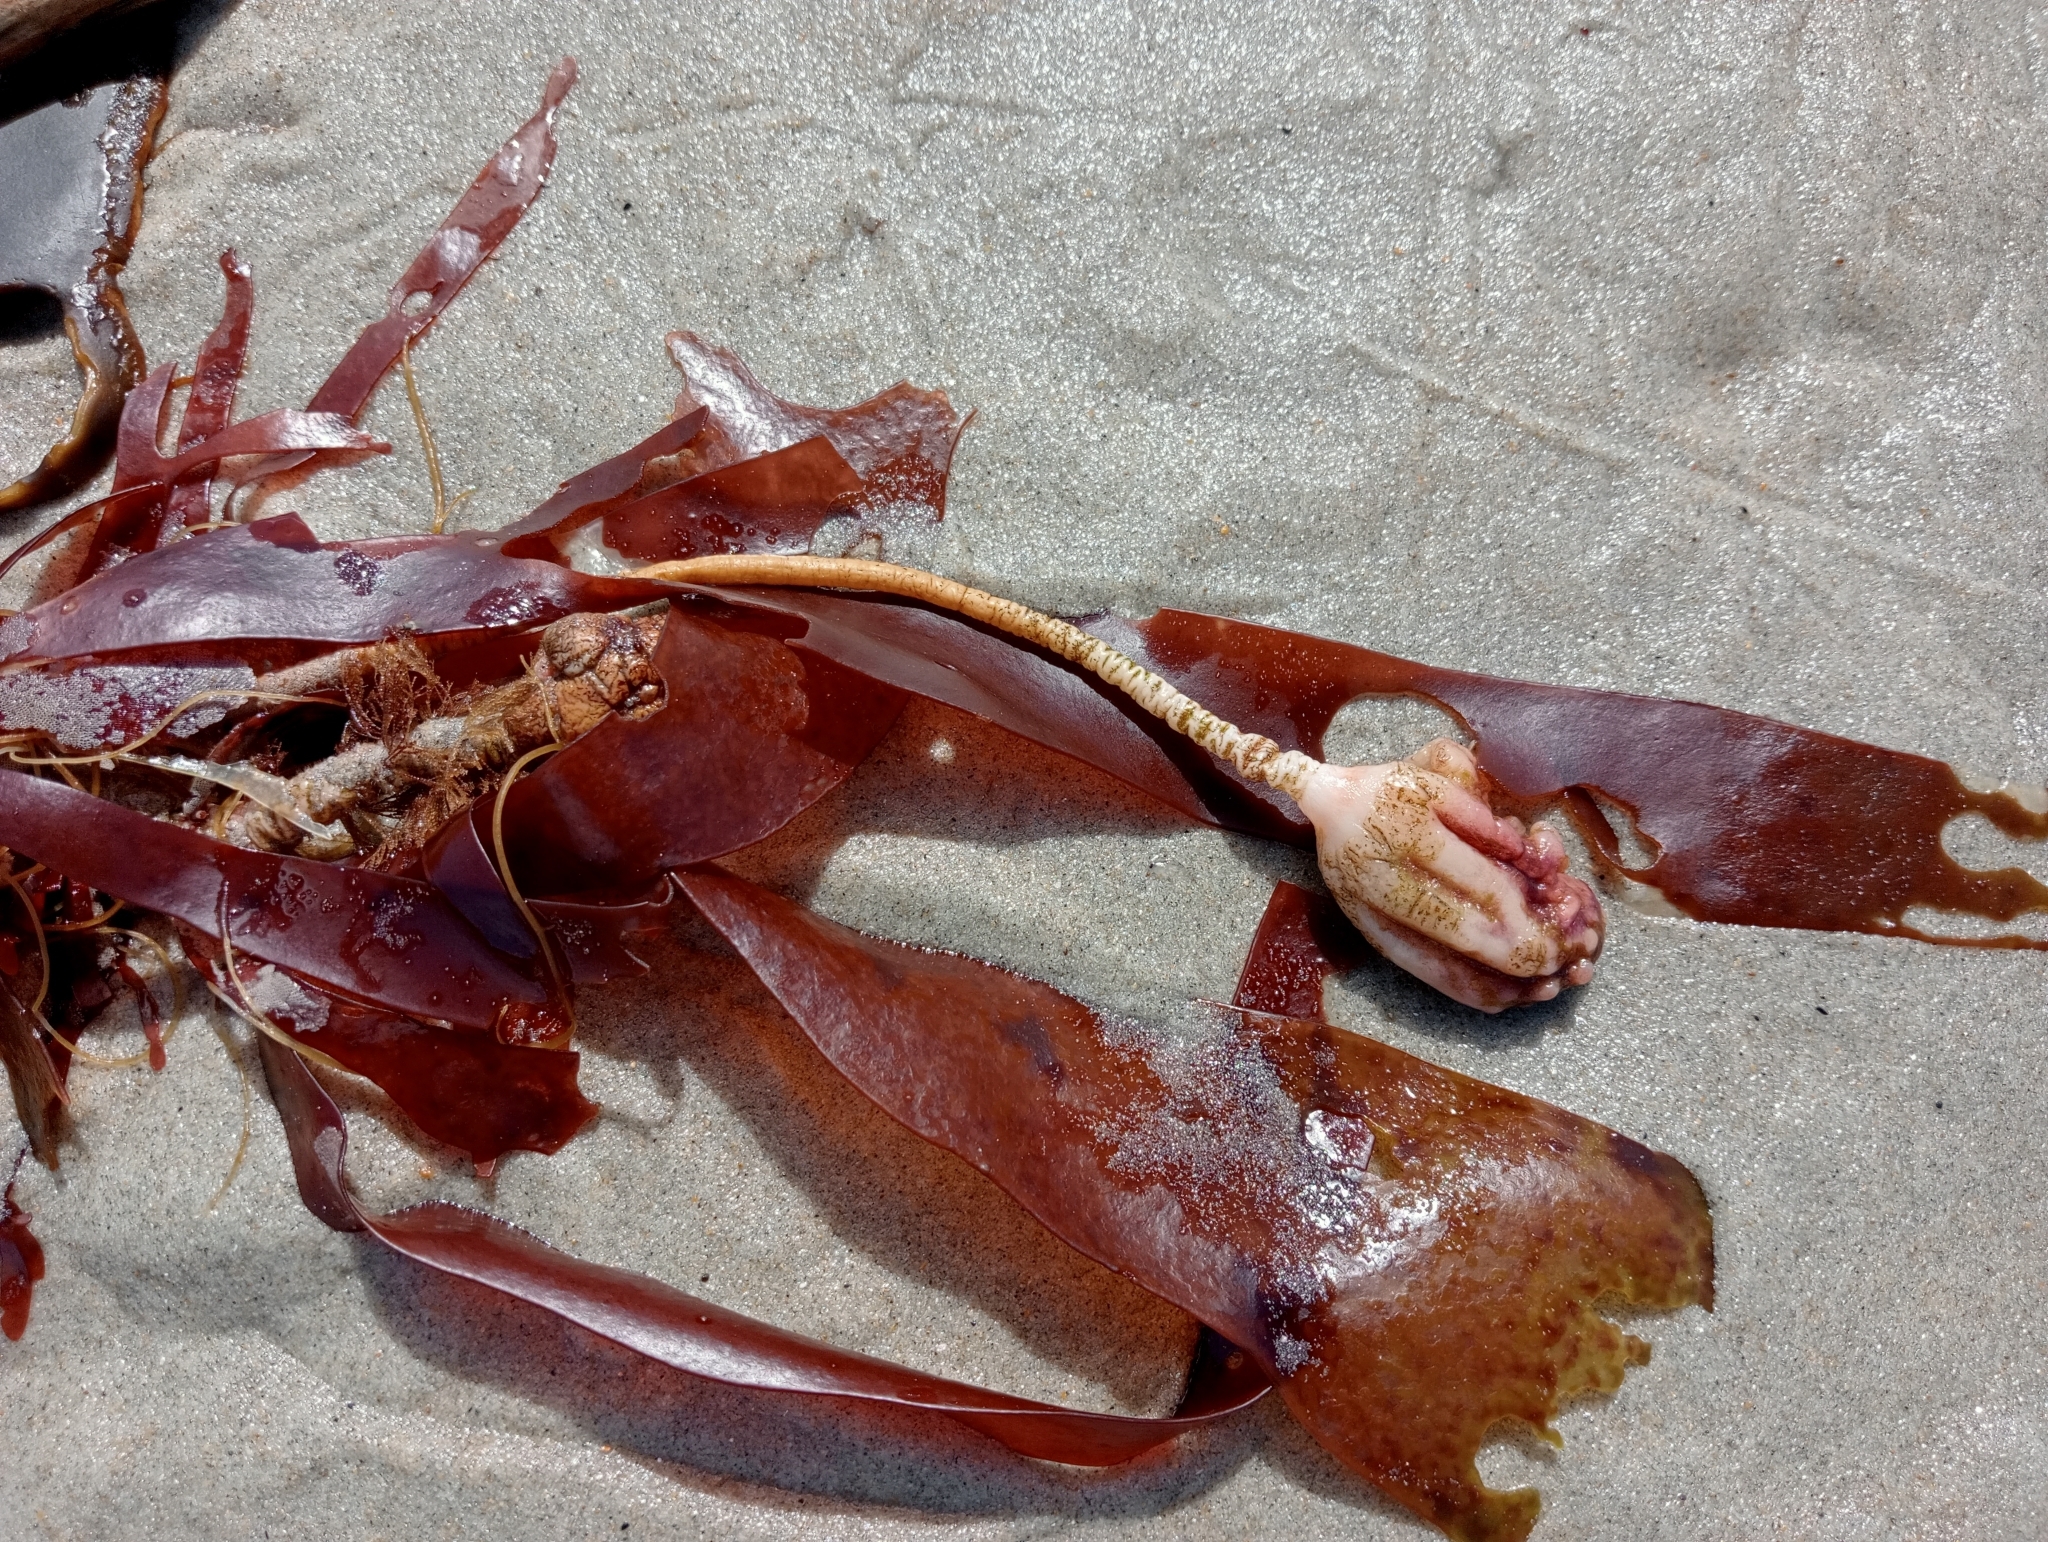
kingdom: Animalia
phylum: Chordata
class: Ascidiacea
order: Stolidobranchia
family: Pyuridae
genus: Pyura
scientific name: Pyura pachydermatina
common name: Sea tulip
